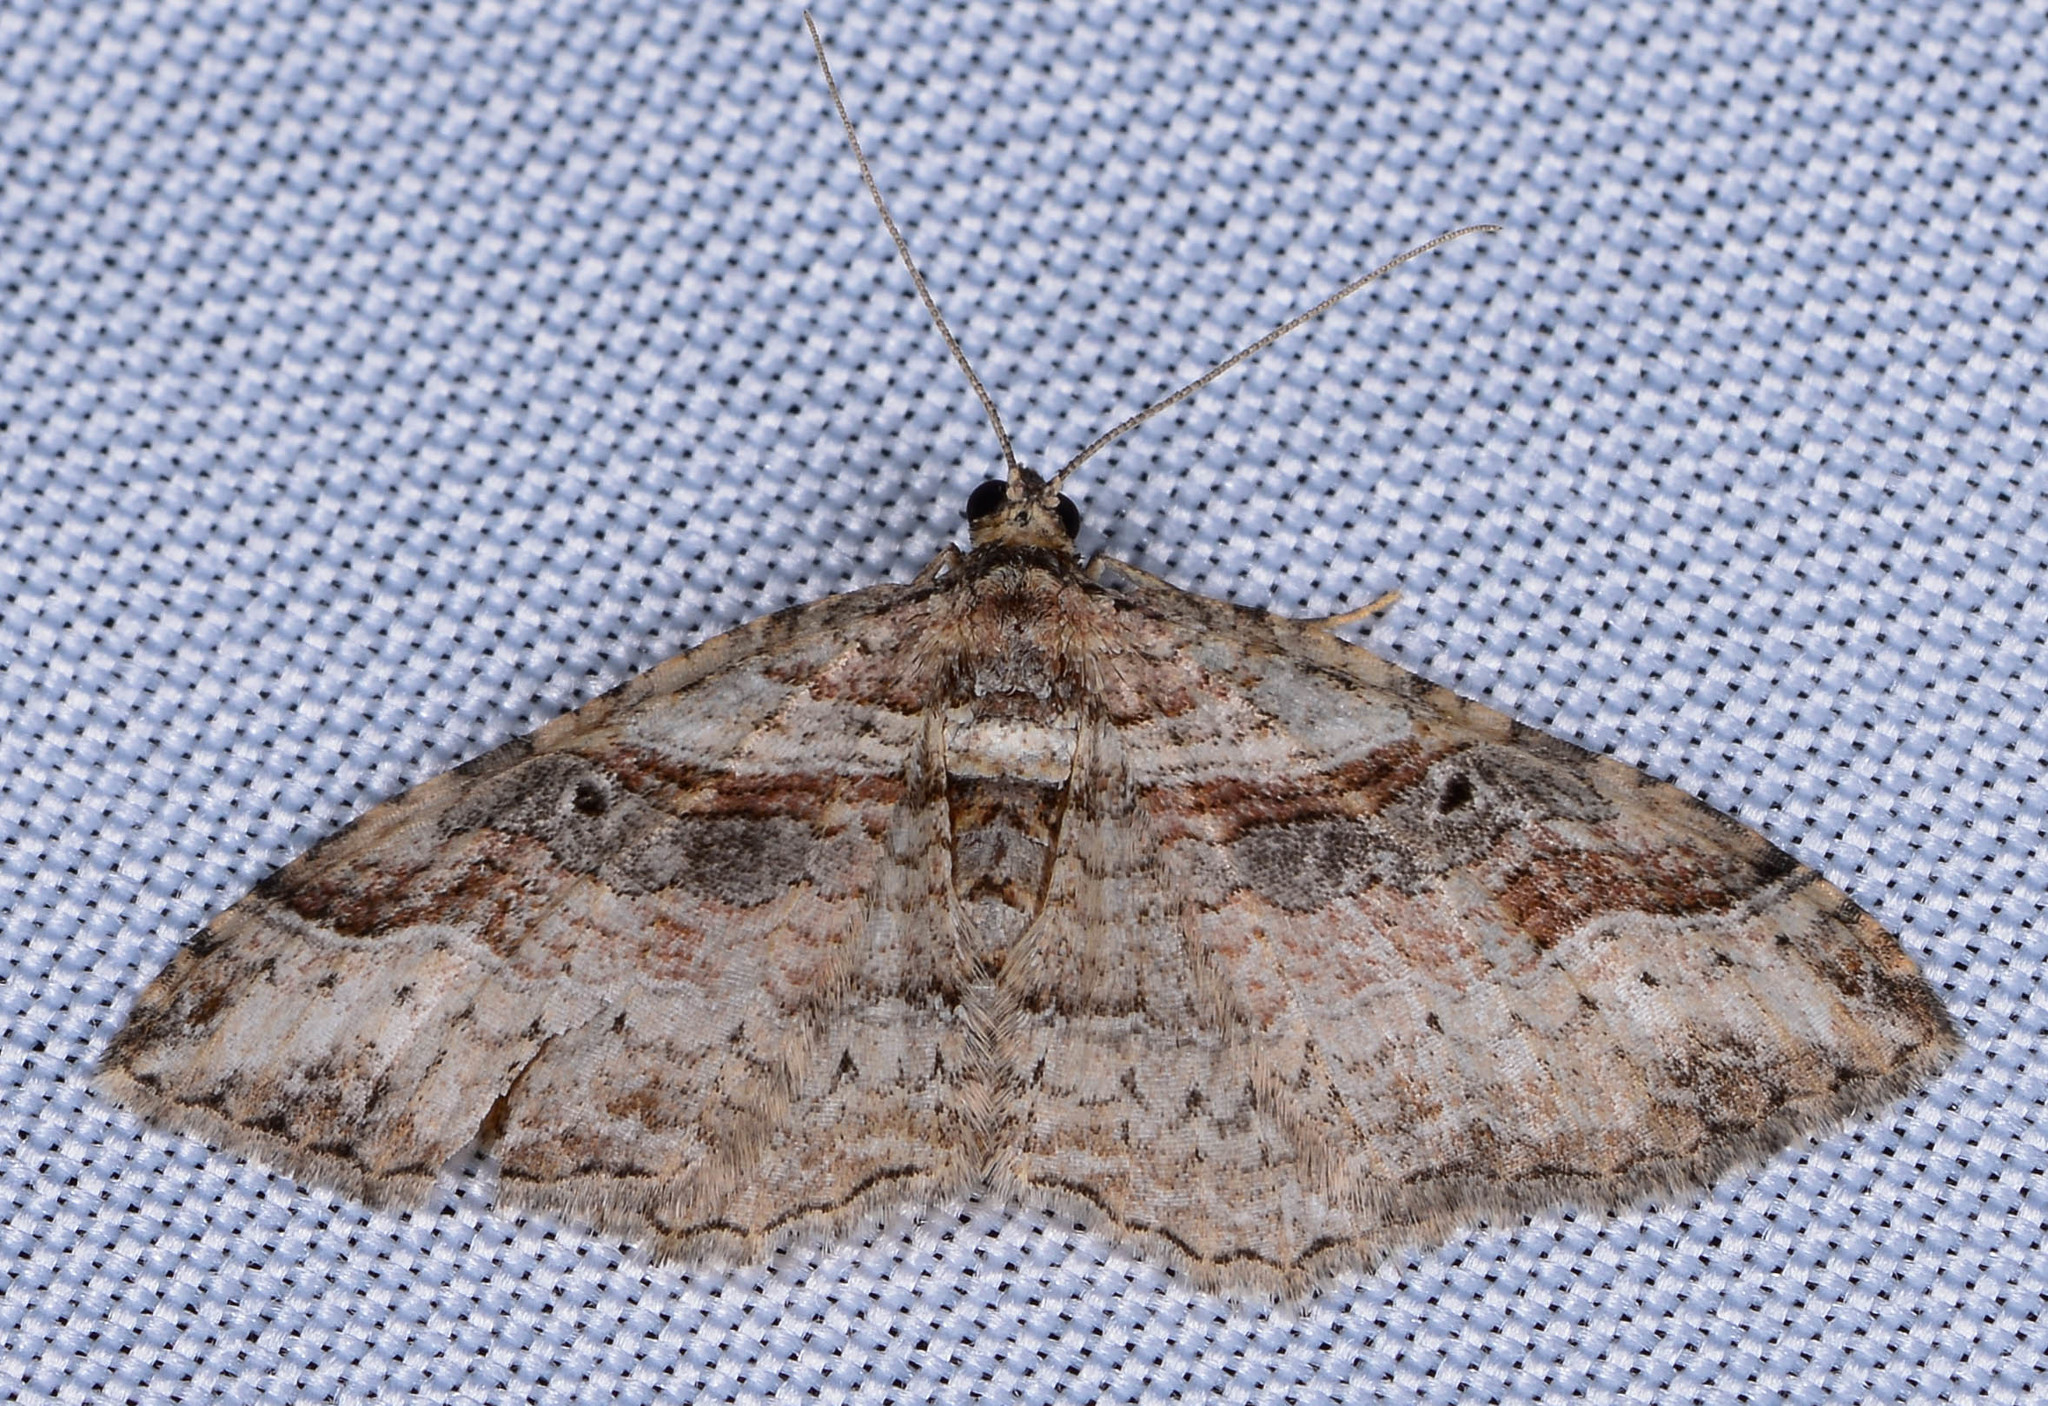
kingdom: Animalia
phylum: Arthropoda
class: Insecta
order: Lepidoptera
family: Geometridae
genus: Costaconvexa
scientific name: Costaconvexa centrostrigaria
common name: Bent-line carpet
